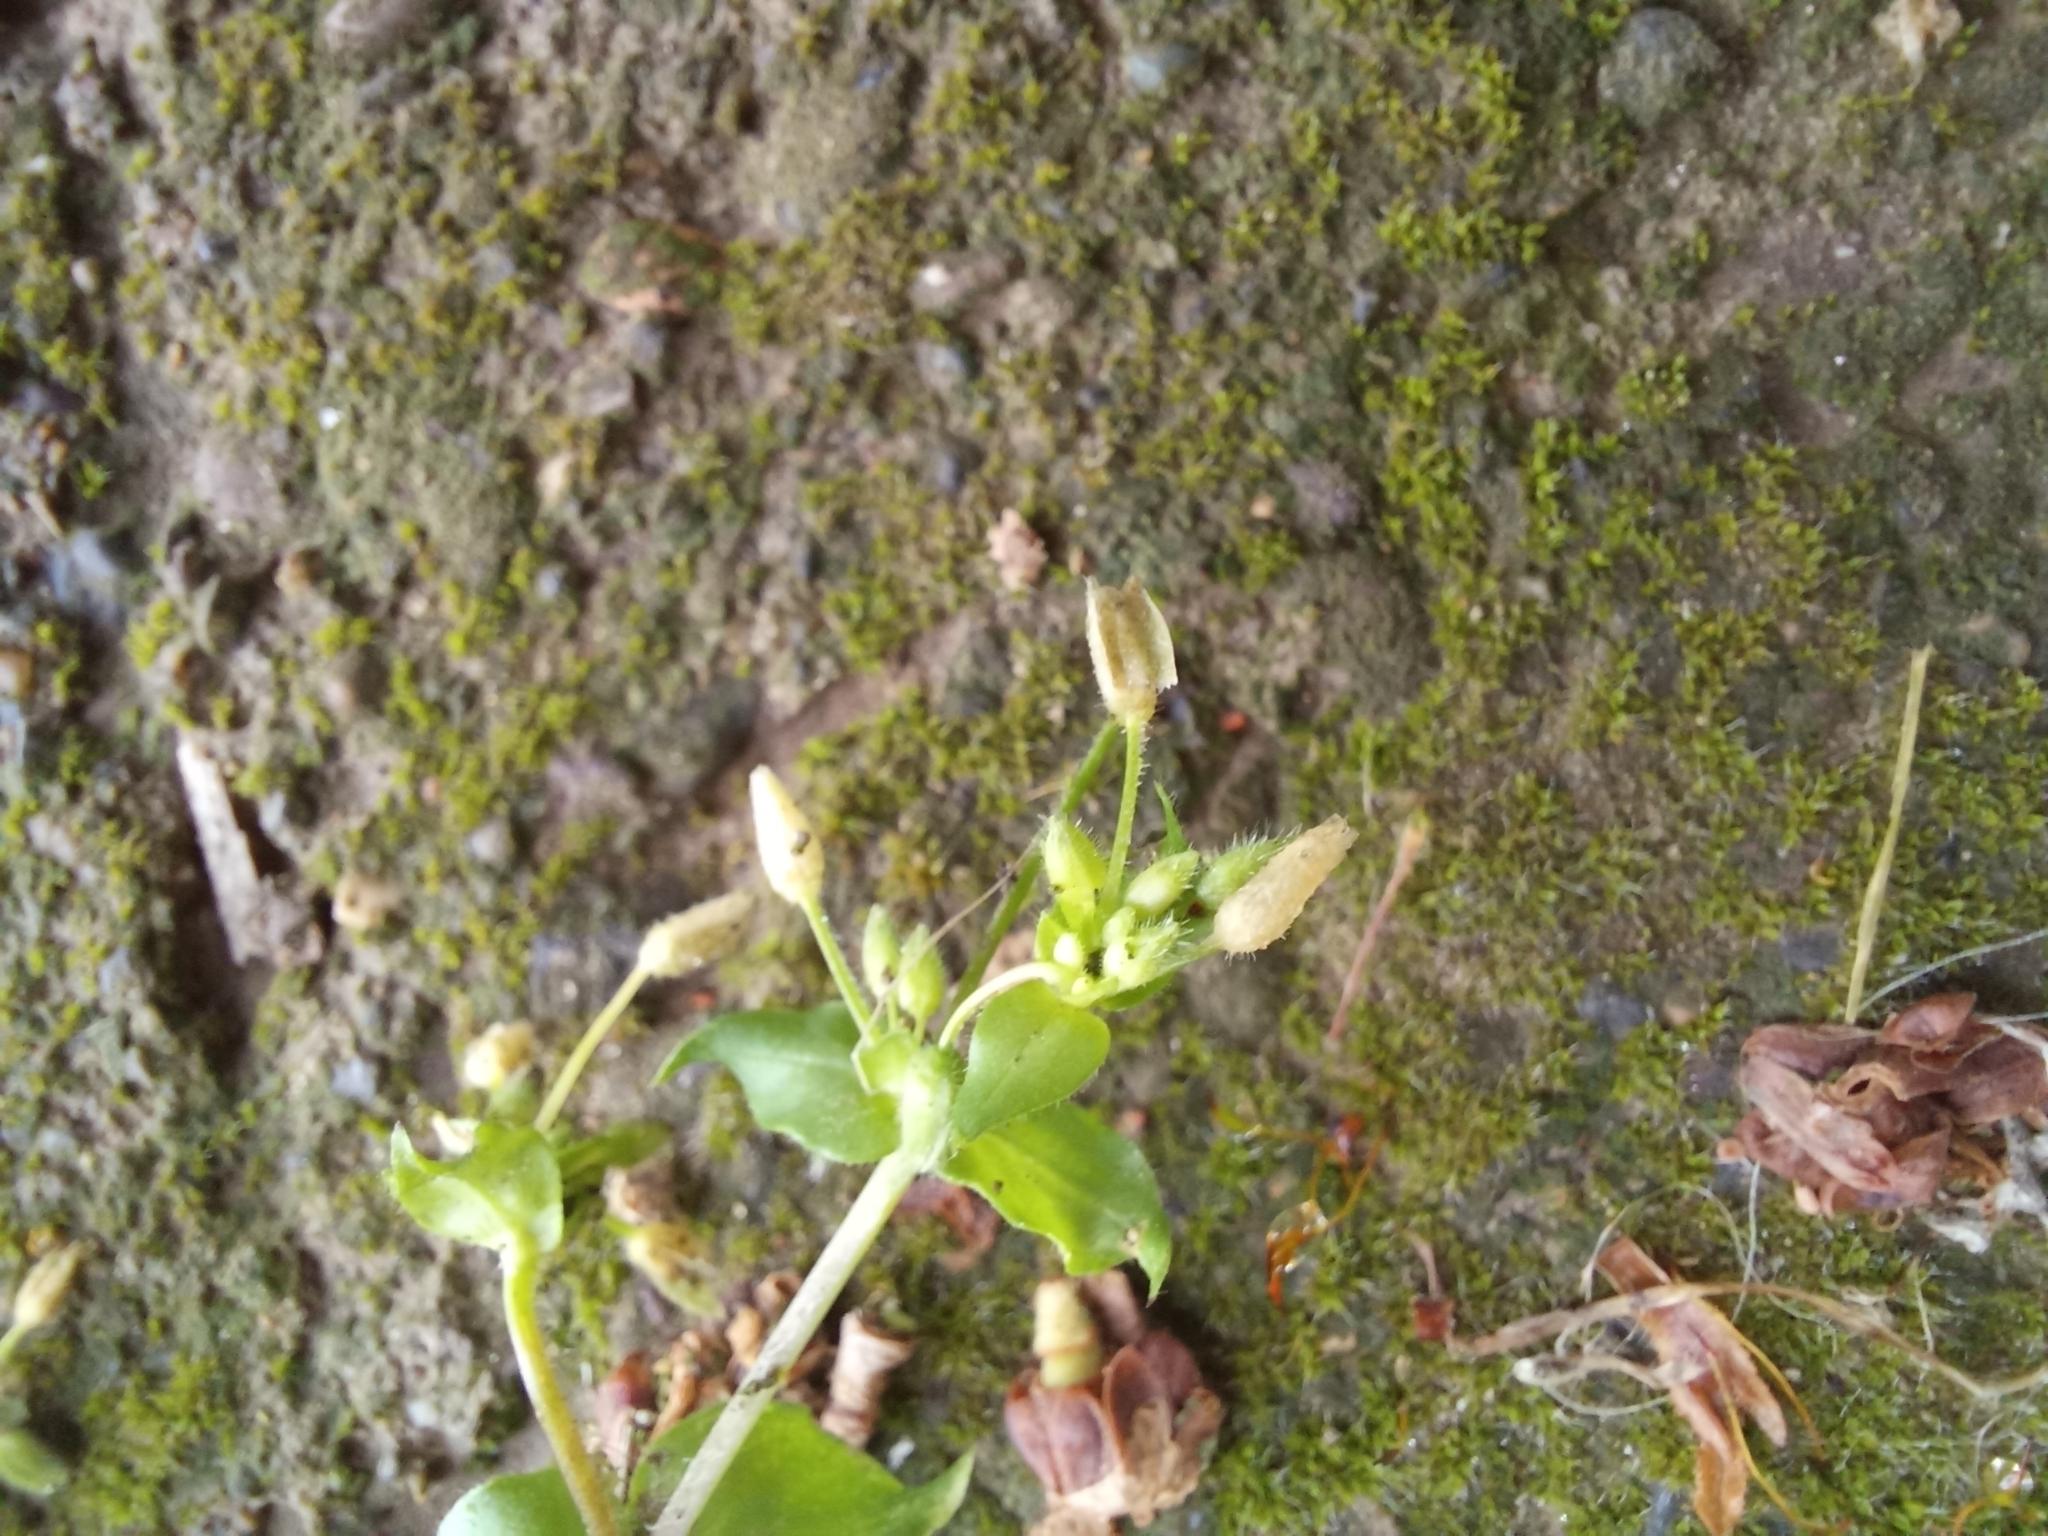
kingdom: Plantae
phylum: Tracheophyta
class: Magnoliopsida
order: Caryophyllales
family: Caryophyllaceae
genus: Stellaria
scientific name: Stellaria media
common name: Common chickweed
